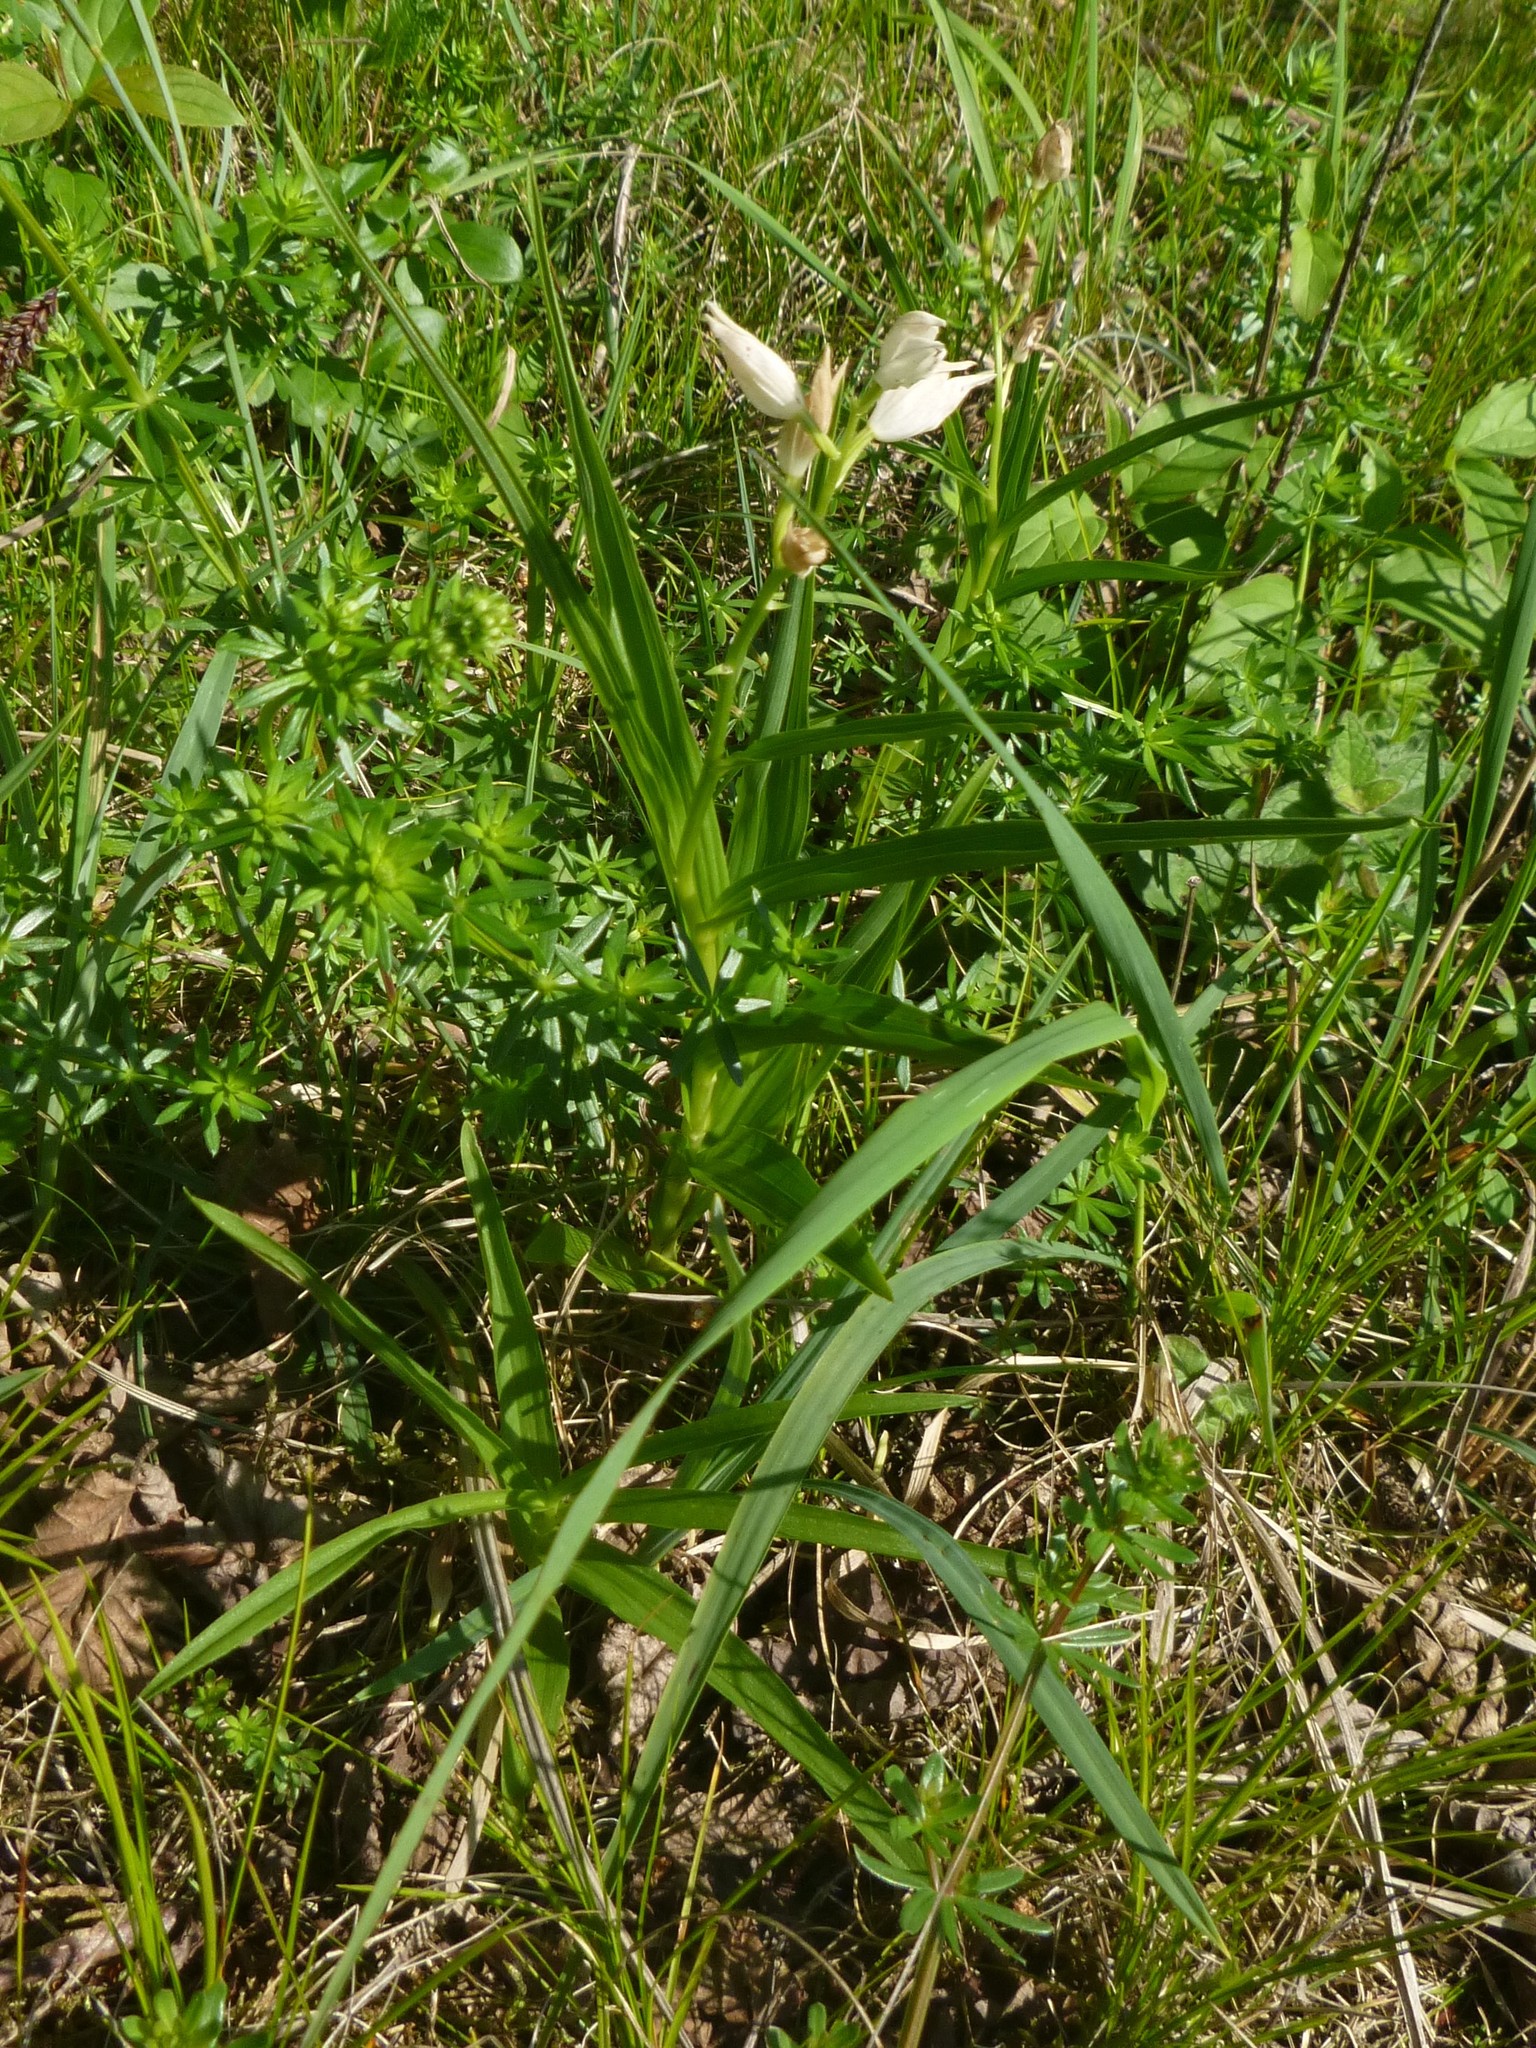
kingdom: Plantae
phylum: Tracheophyta
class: Liliopsida
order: Asparagales
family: Orchidaceae
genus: Cephalanthera
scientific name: Cephalanthera longifolia
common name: Narrow-leaved helleborine
